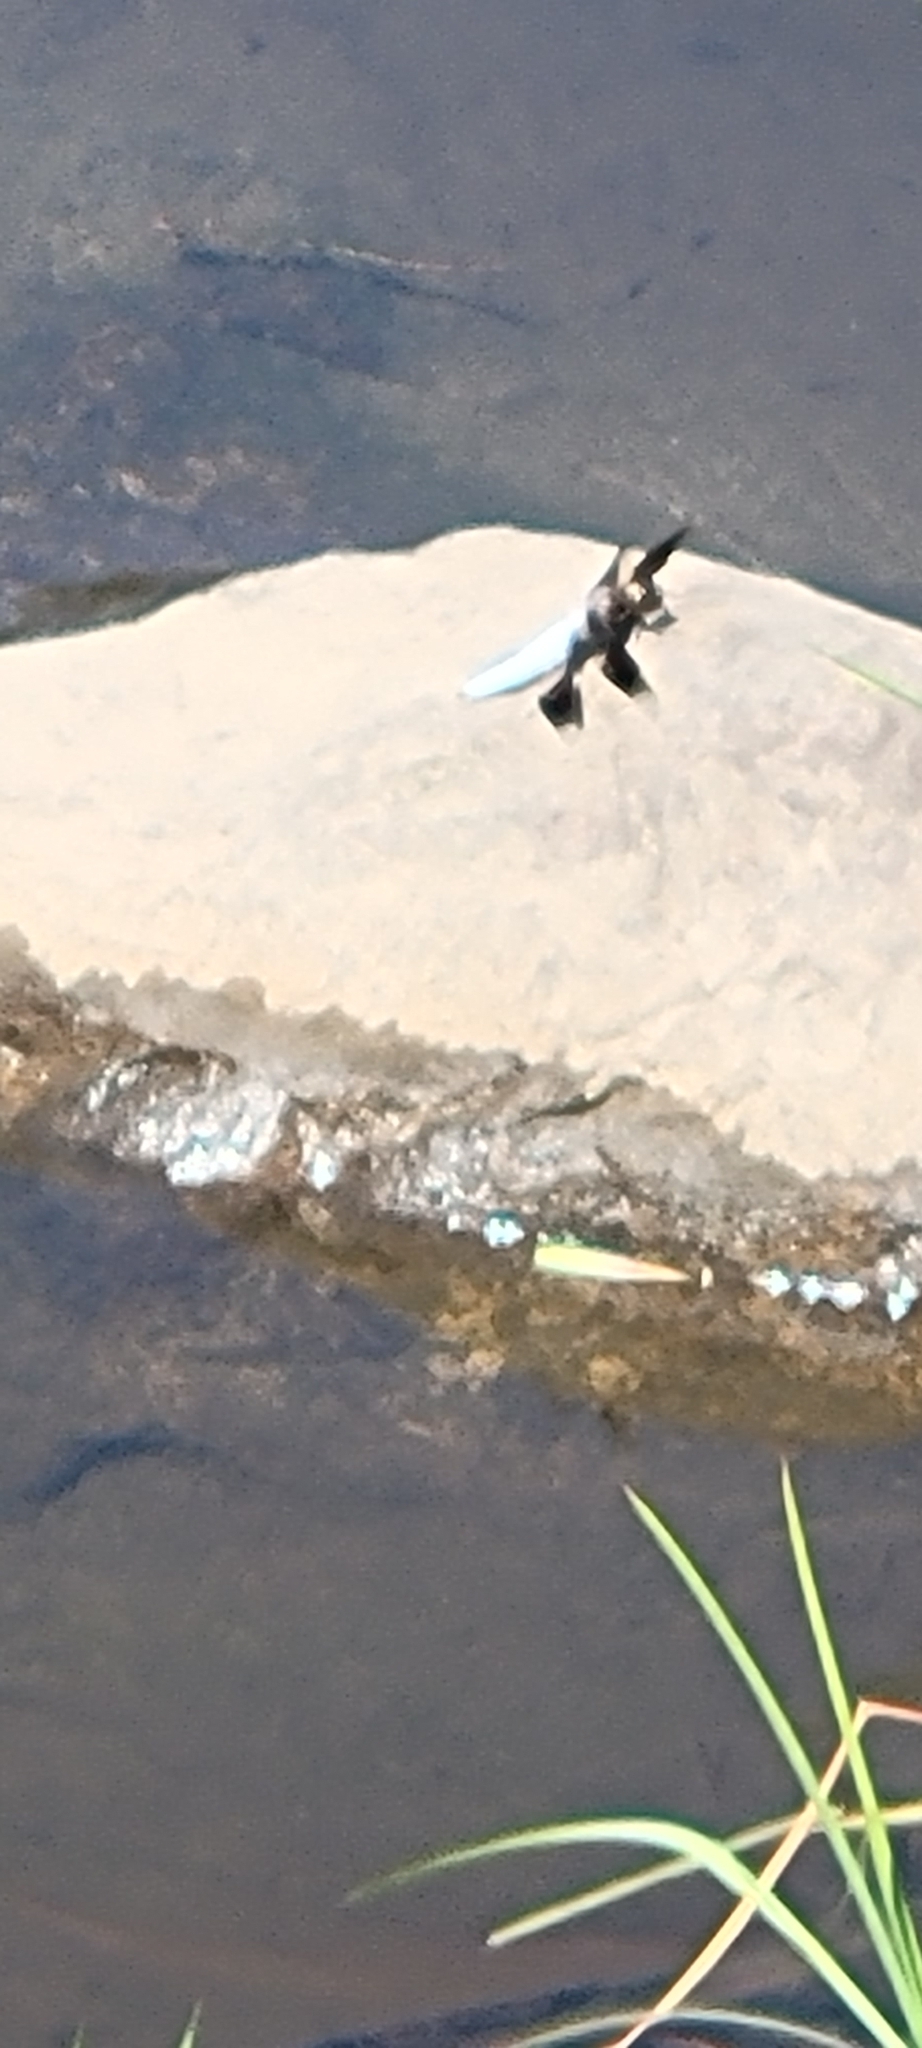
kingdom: Animalia
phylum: Arthropoda
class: Insecta
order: Odonata
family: Libellulidae
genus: Plathemis
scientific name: Plathemis lydia
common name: Common whitetail
